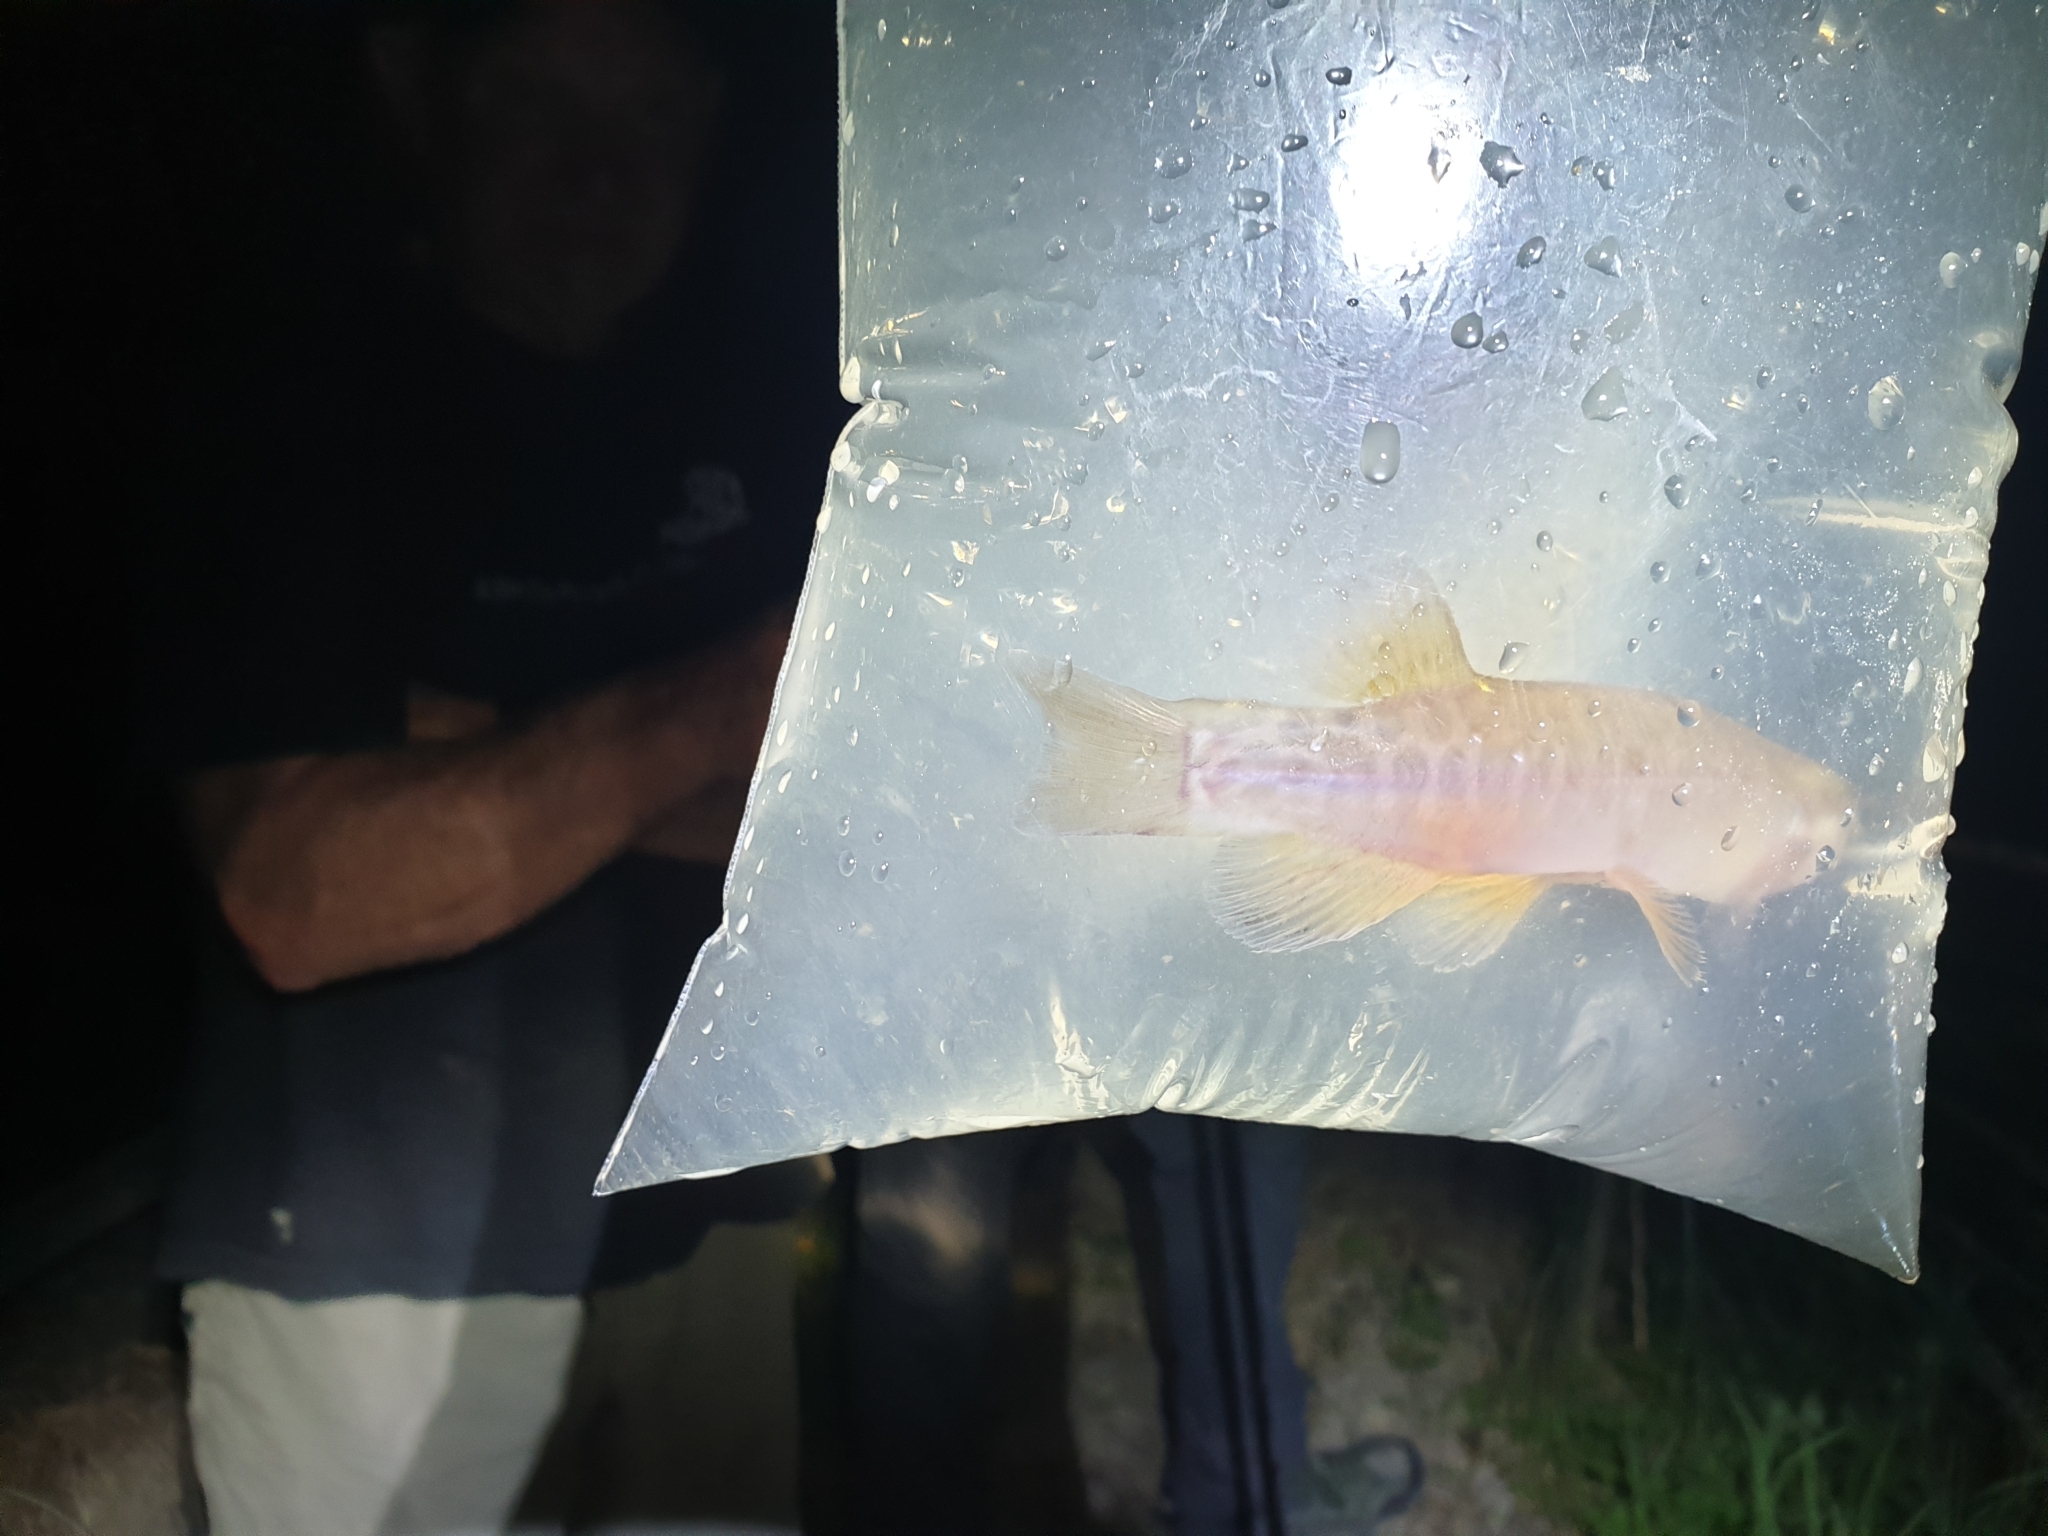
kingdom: Animalia
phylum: Chordata
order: Osmeriformes
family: Galaxiidae
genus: Galaxias
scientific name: Galaxias fasciatus
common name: Banded kokopu
